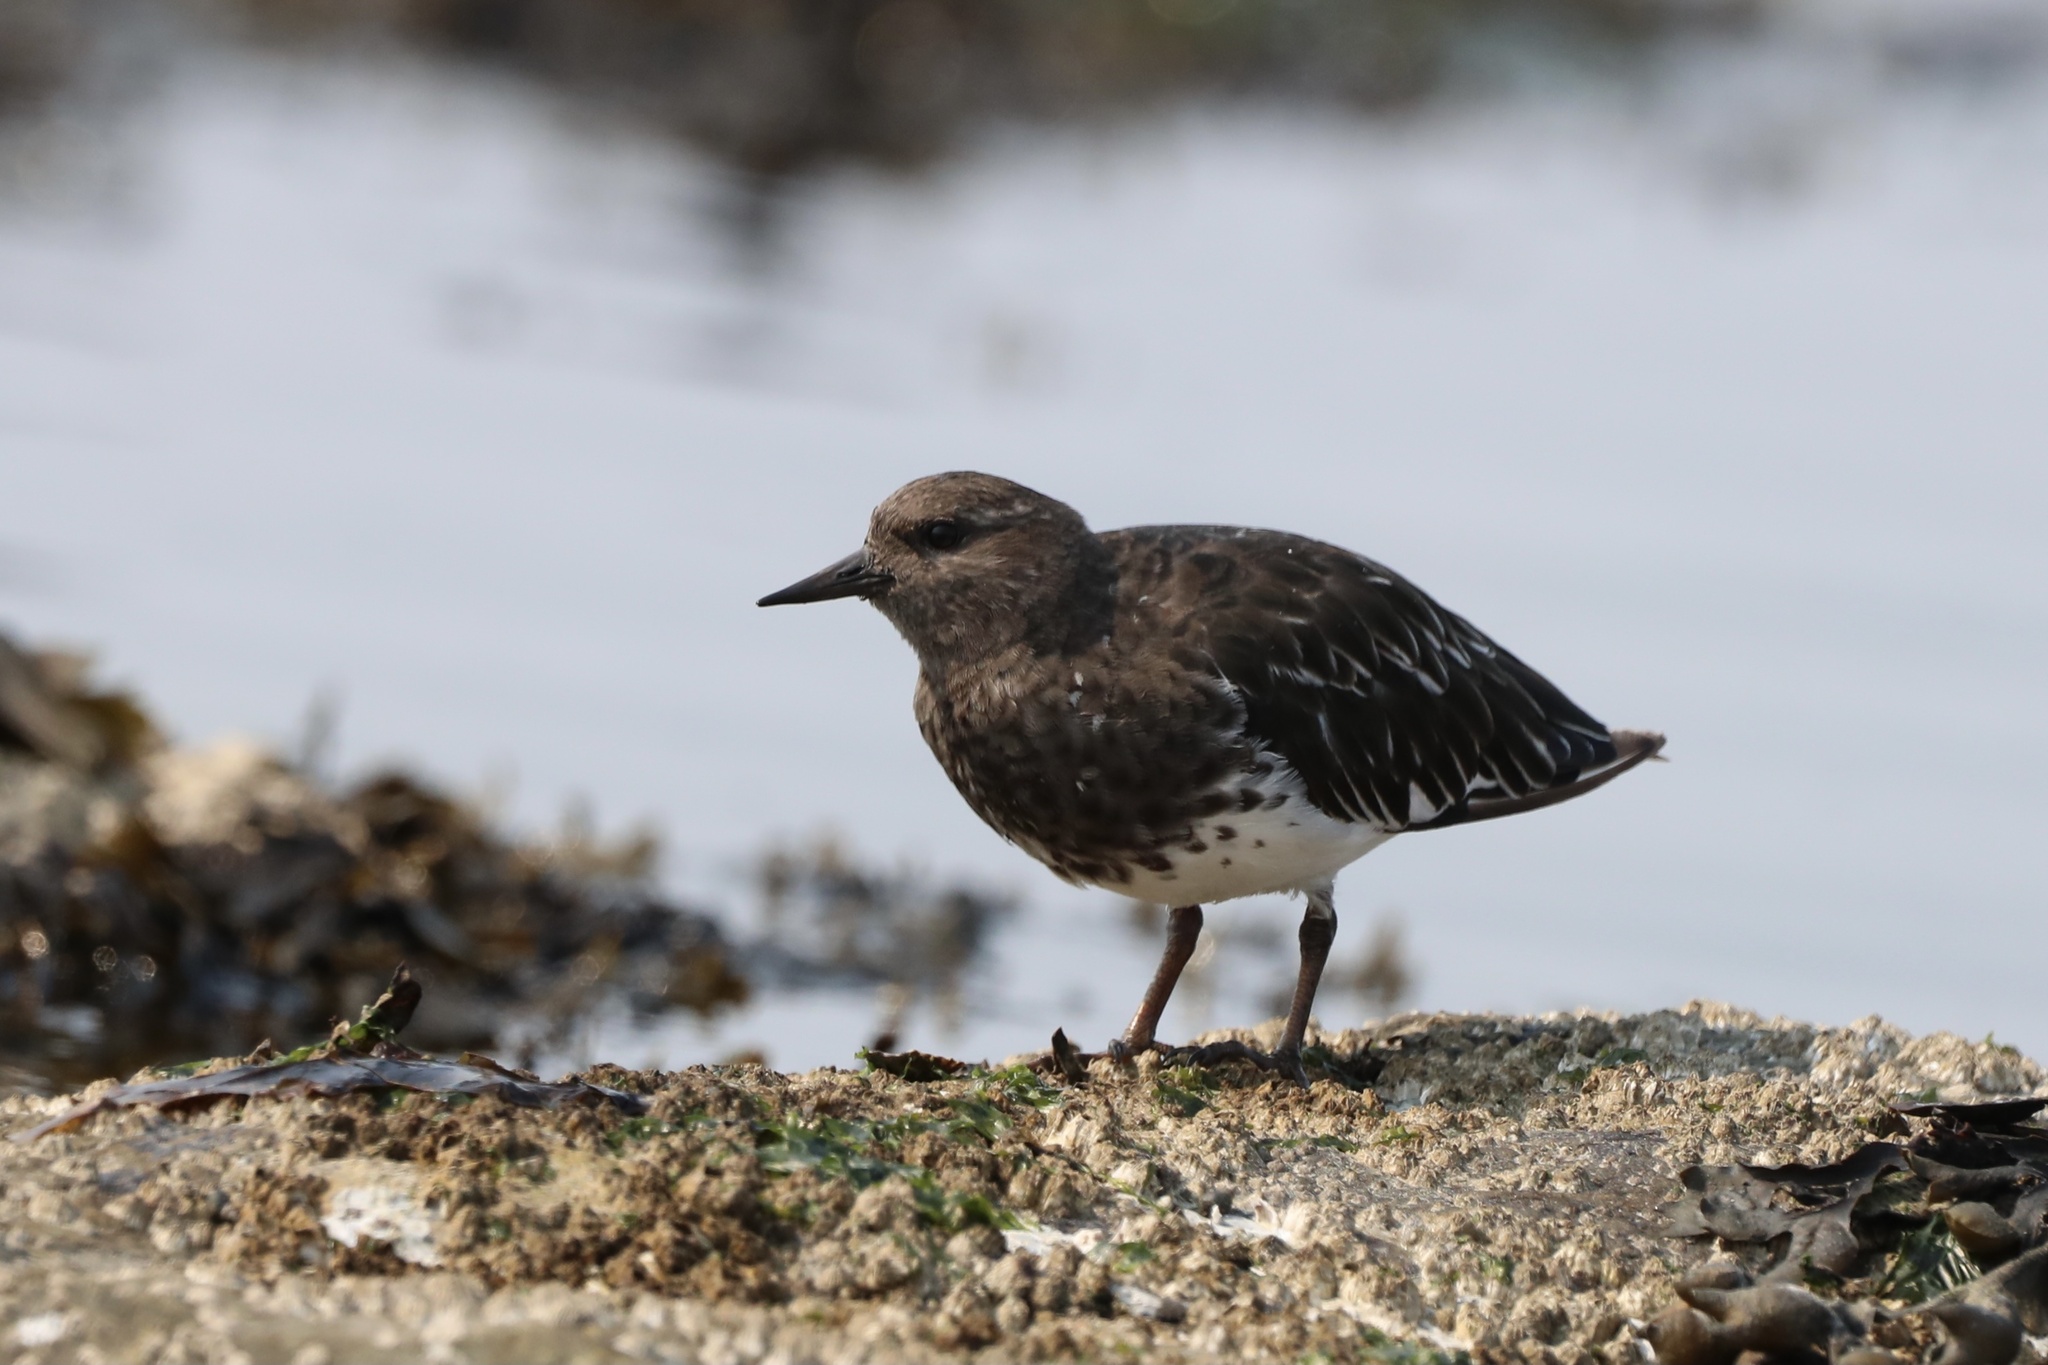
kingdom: Animalia
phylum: Chordata
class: Aves
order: Charadriiformes
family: Scolopacidae
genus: Arenaria
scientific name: Arenaria melanocephala
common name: Black turnstone
